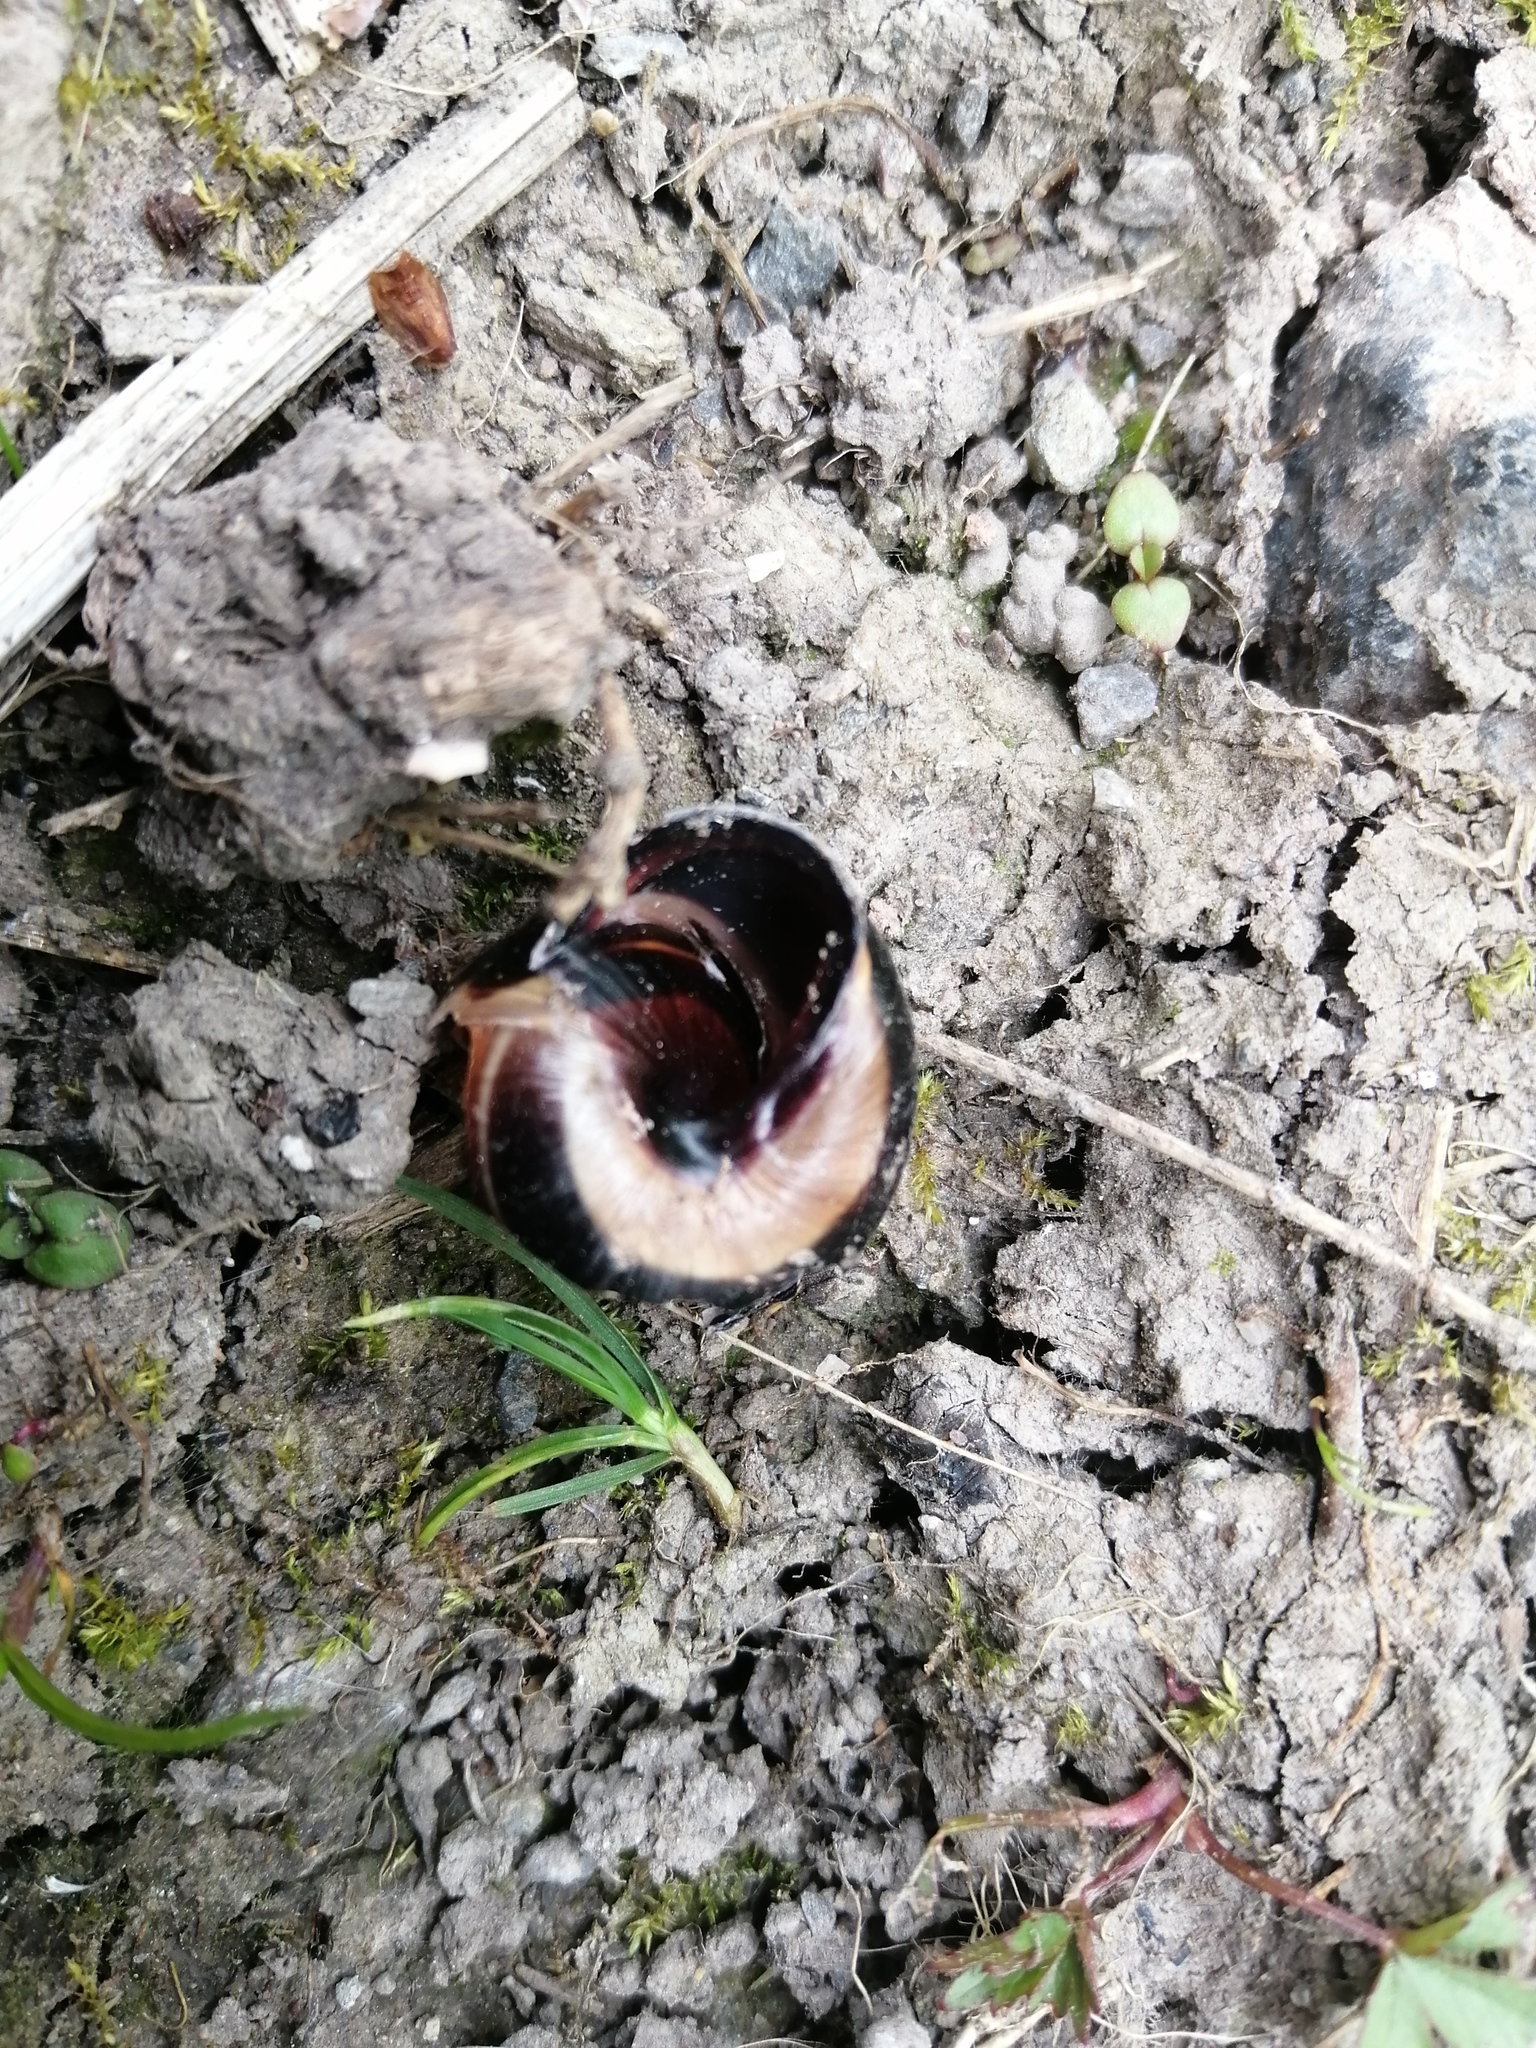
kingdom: Animalia
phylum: Mollusca
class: Gastropoda
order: Stylommatophora
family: Helicidae
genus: Cepaea
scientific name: Cepaea nemoralis
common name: Grovesnail
